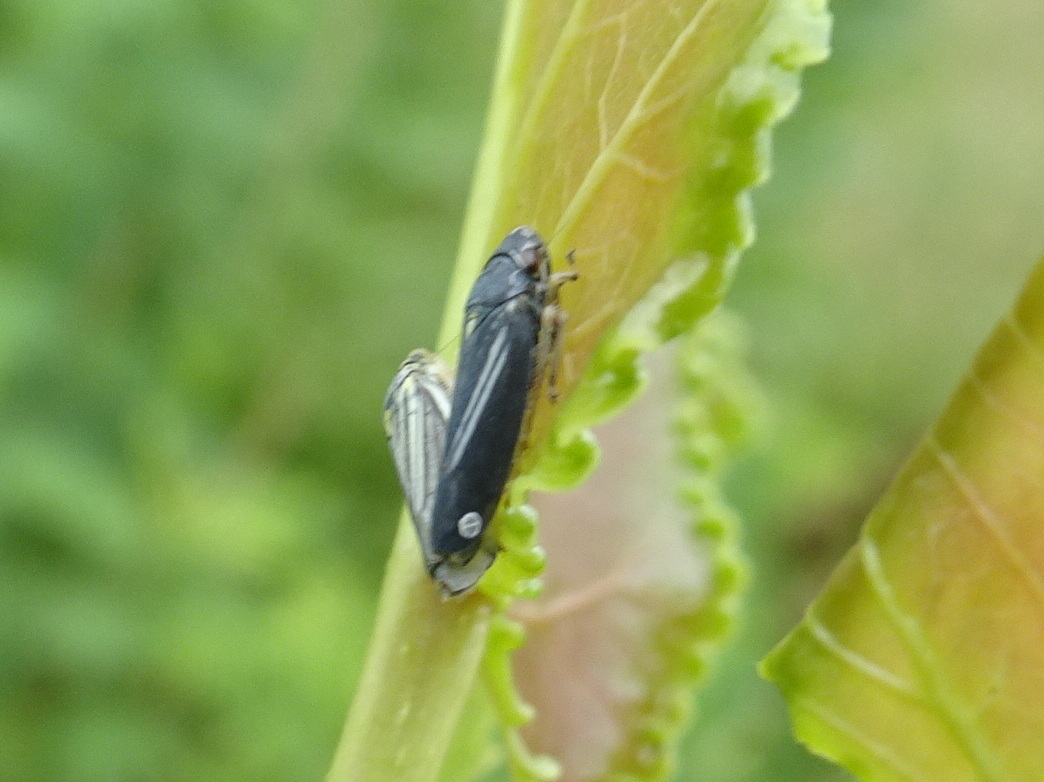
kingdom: Animalia
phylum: Arthropoda
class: Insecta
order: Hemiptera
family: Cicadellidae
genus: Neokolla
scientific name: Neokolla hieroglyphica
